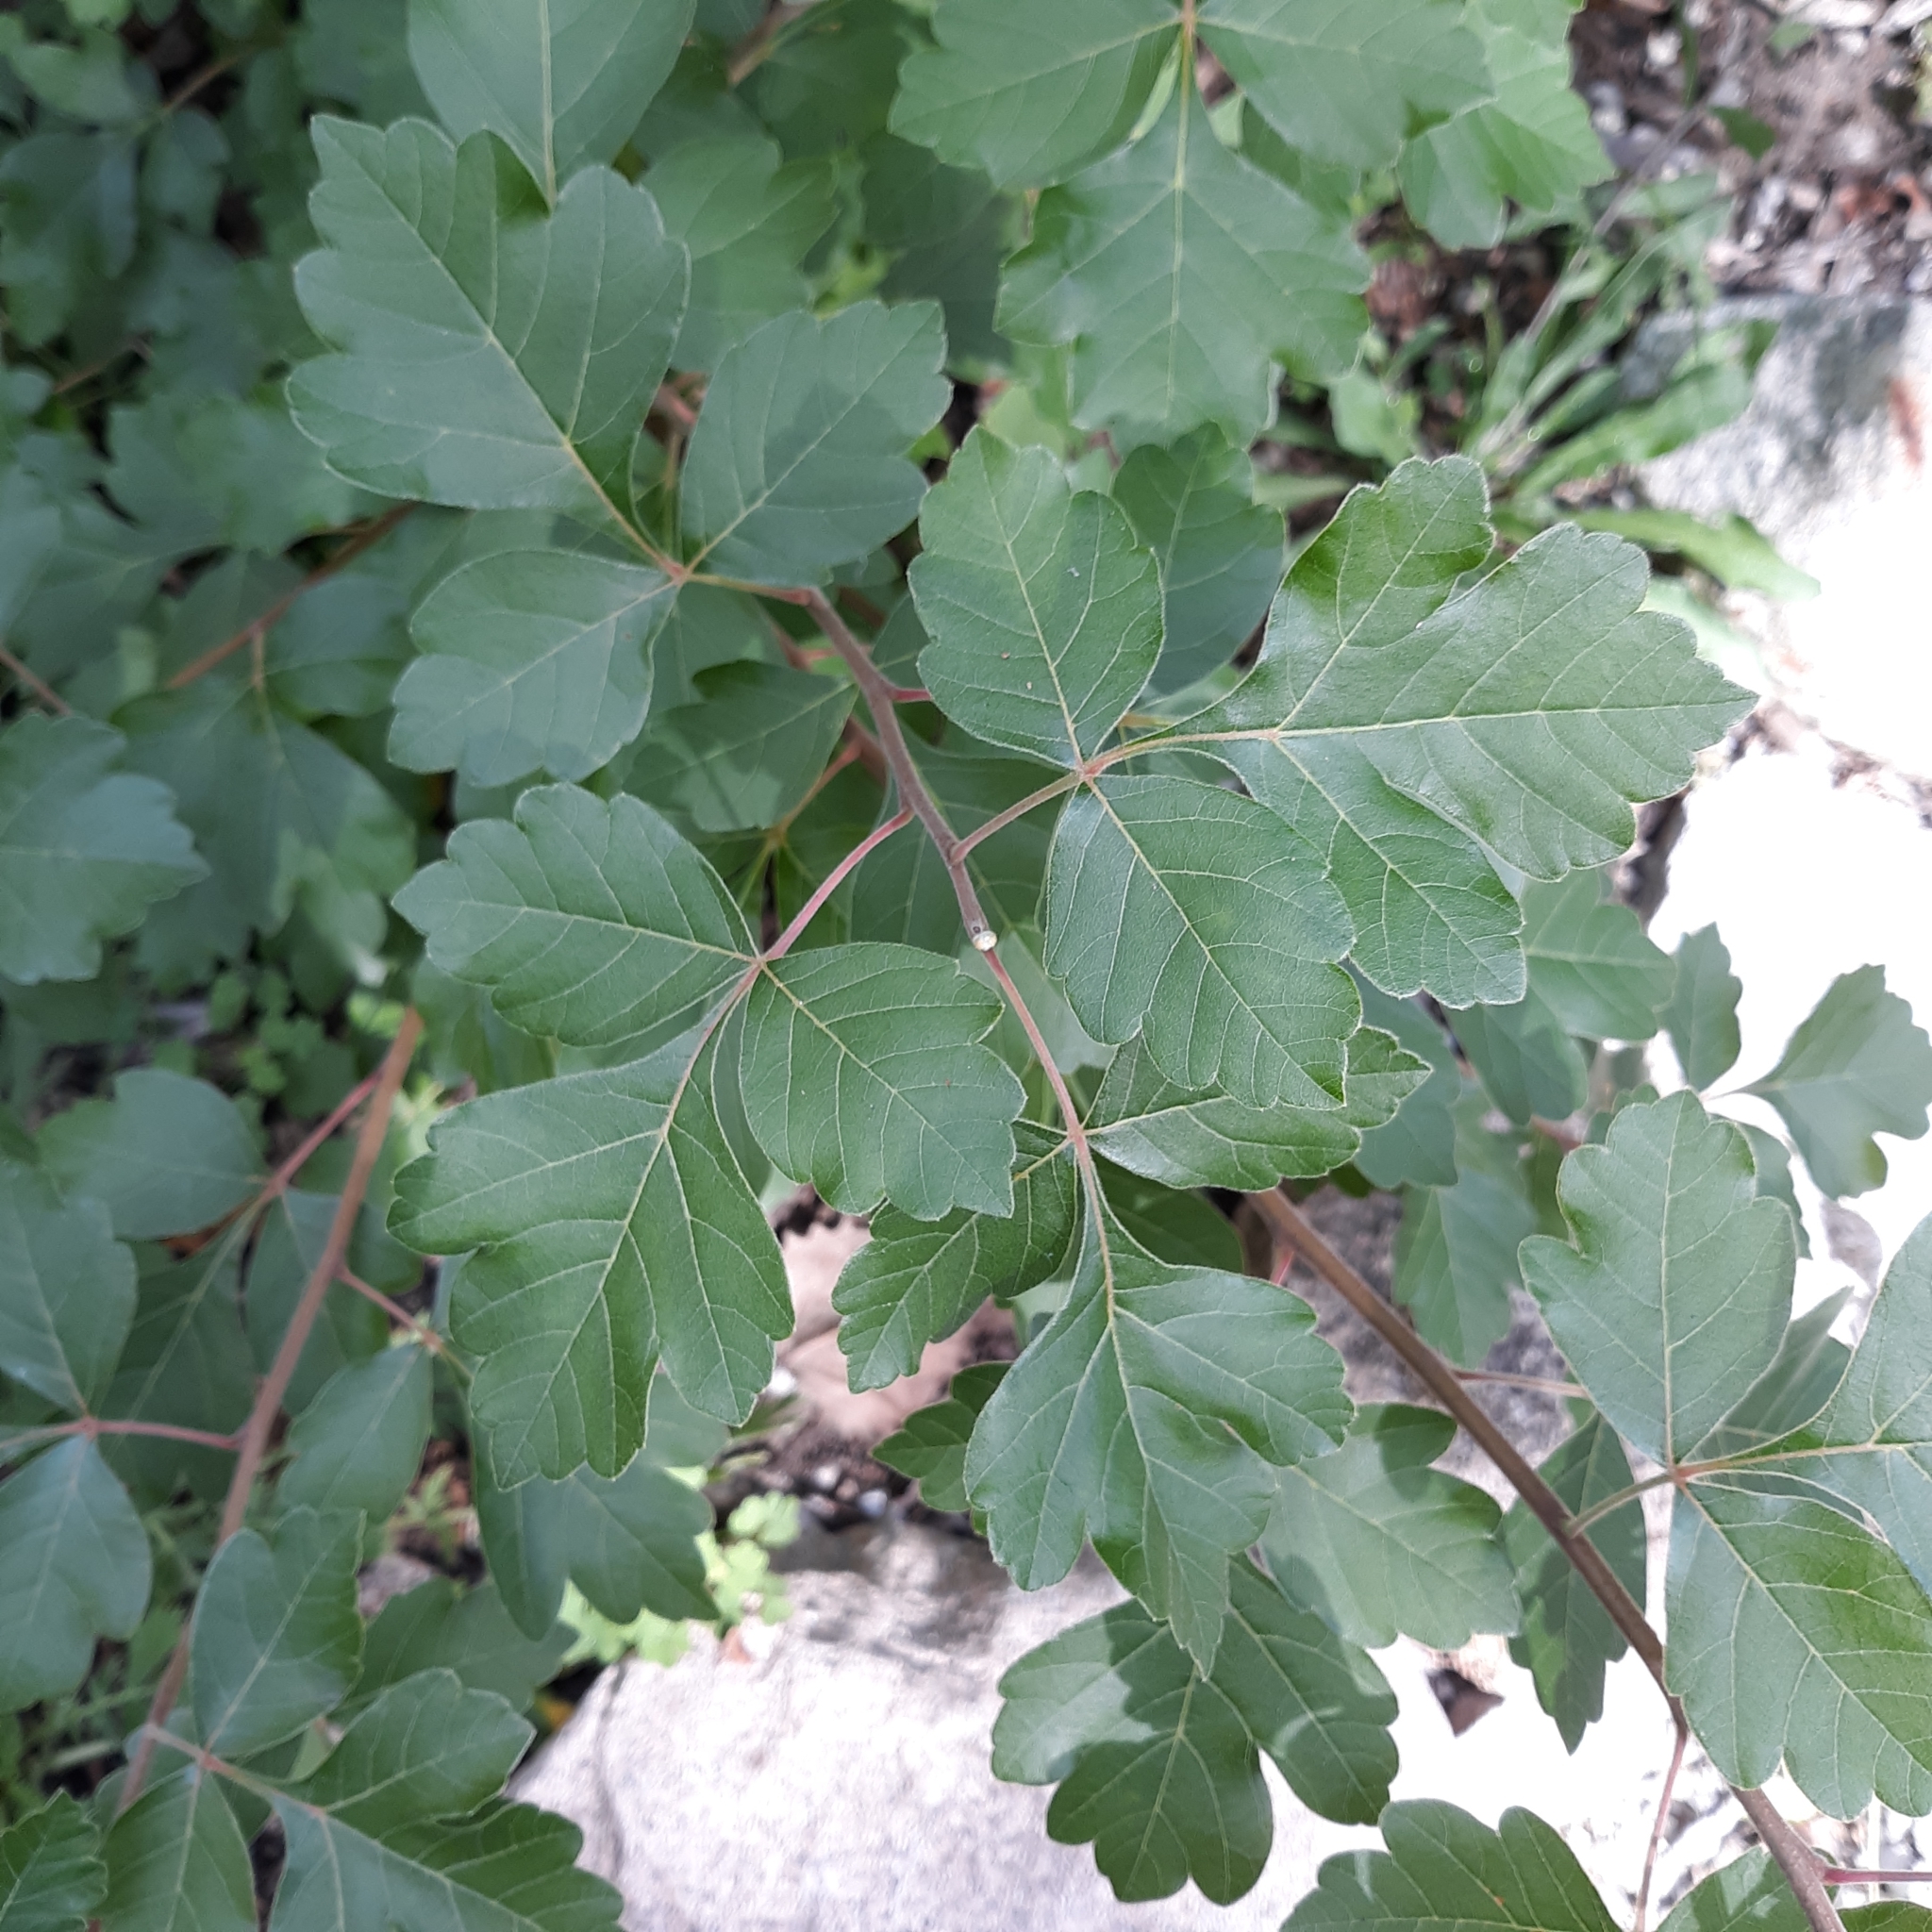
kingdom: Plantae
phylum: Tracheophyta
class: Magnoliopsida
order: Sapindales
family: Anacardiaceae
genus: Rhus
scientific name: Rhus aromatica
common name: Aromatic sumac
